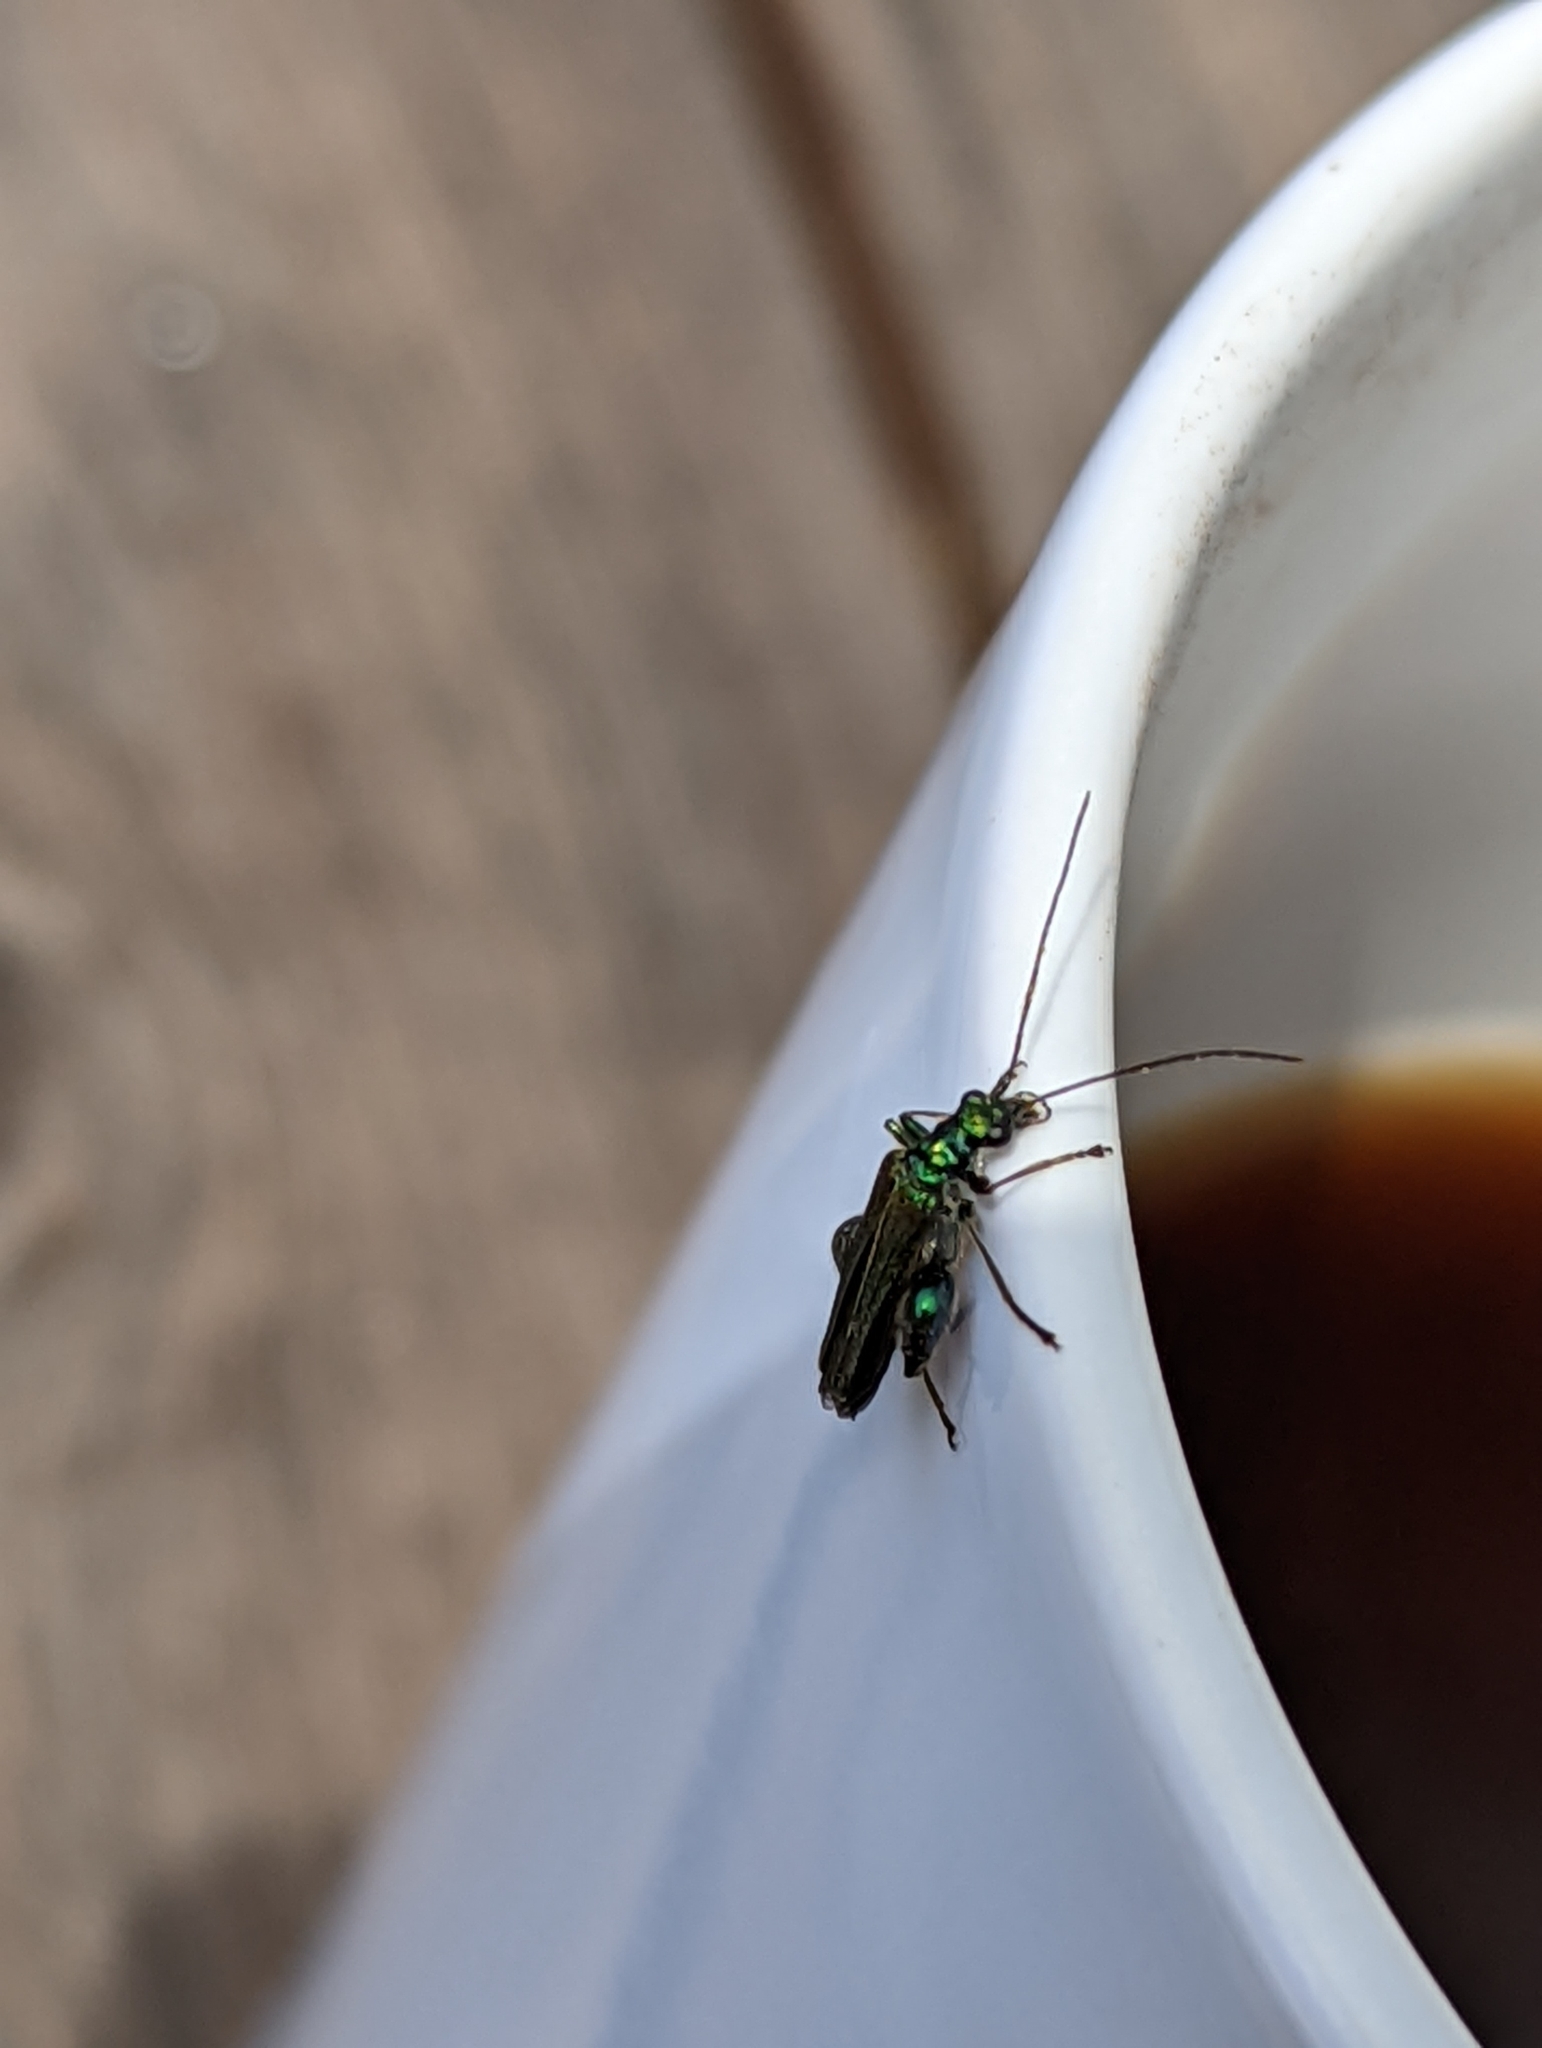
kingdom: Animalia
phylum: Arthropoda
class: Insecta
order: Coleoptera
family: Oedemeridae
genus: Oedemera
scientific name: Oedemera nobilis
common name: Swollen-thighed beetle
